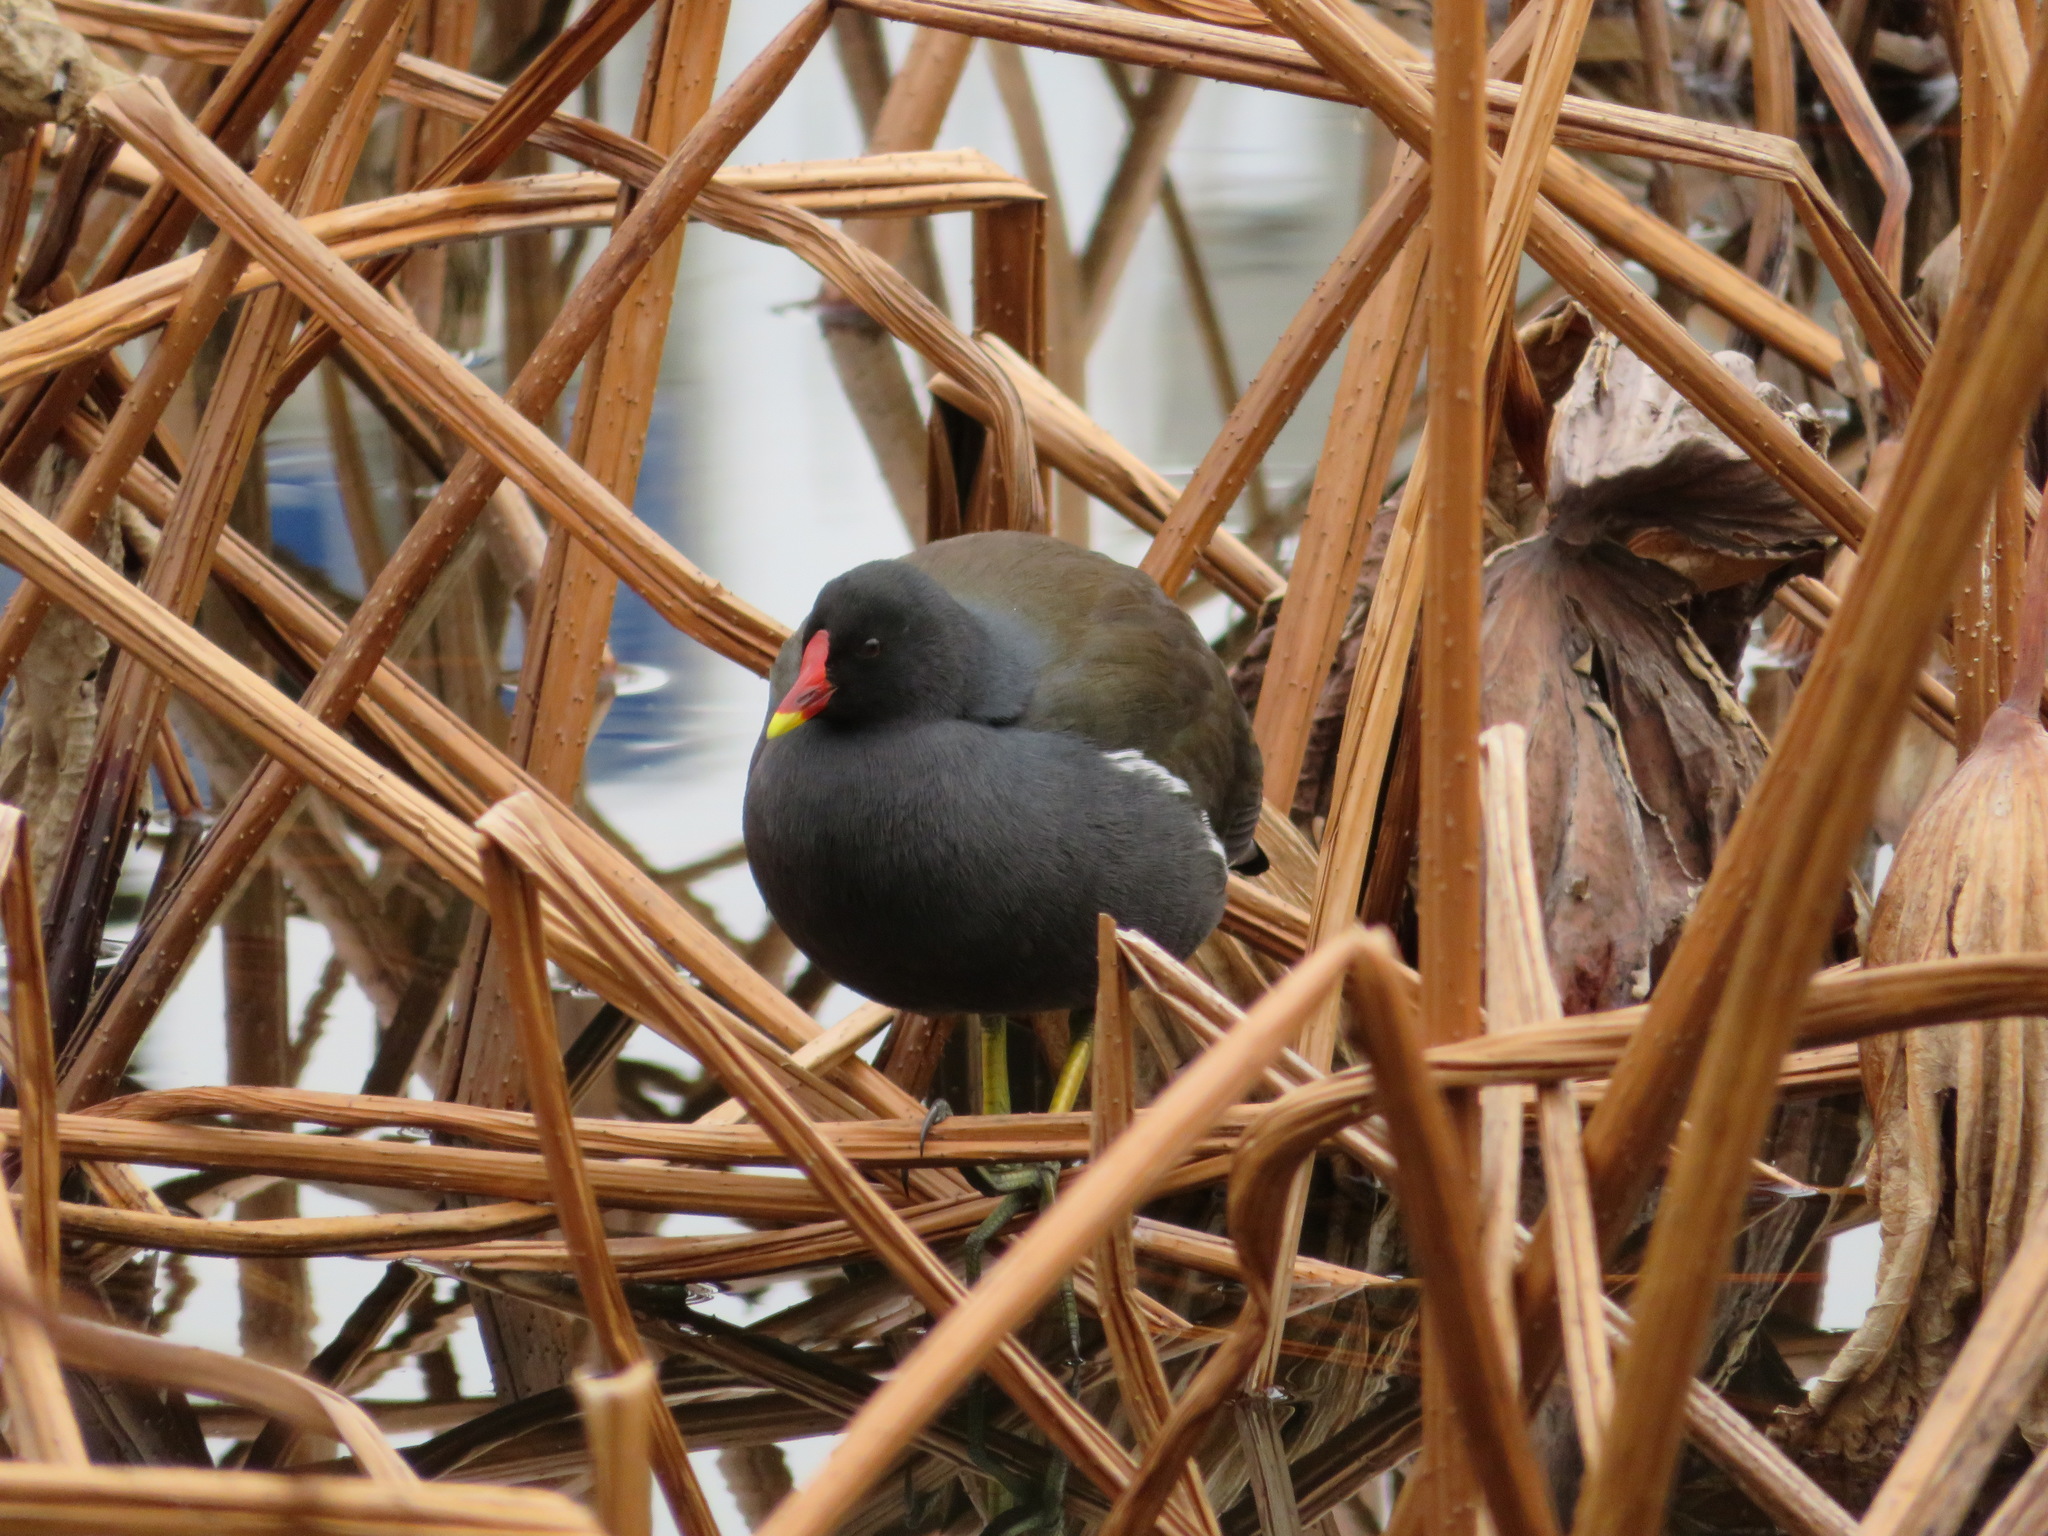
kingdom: Animalia
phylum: Chordata
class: Aves
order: Gruiformes
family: Rallidae
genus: Gallinula
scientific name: Gallinula chloropus
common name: Common moorhen
